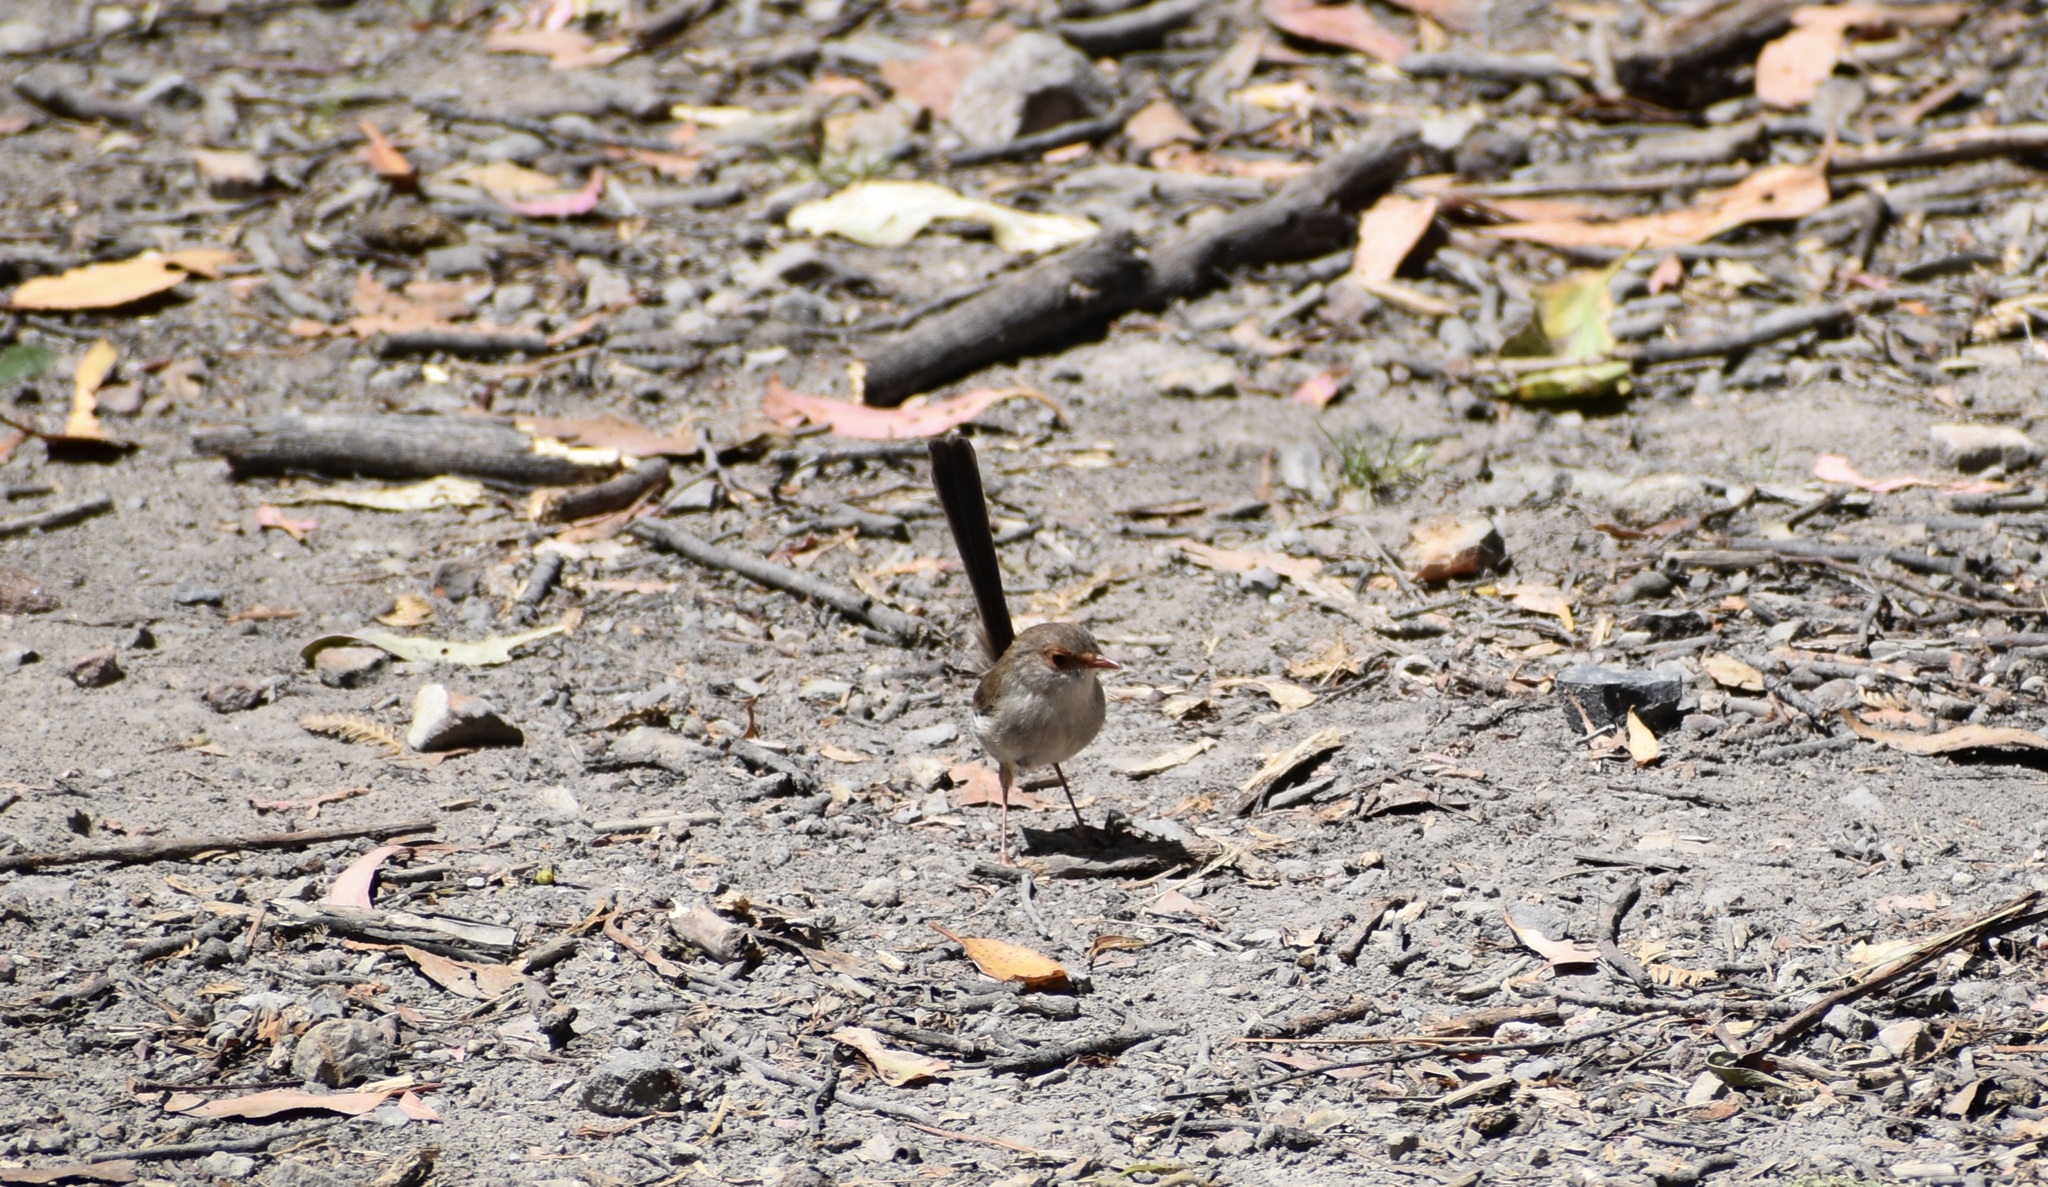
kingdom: Animalia
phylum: Chordata
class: Aves
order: Passeriformes
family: Maluridae
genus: Malurus
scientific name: Malurus cyaneus
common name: Superb fairywren
